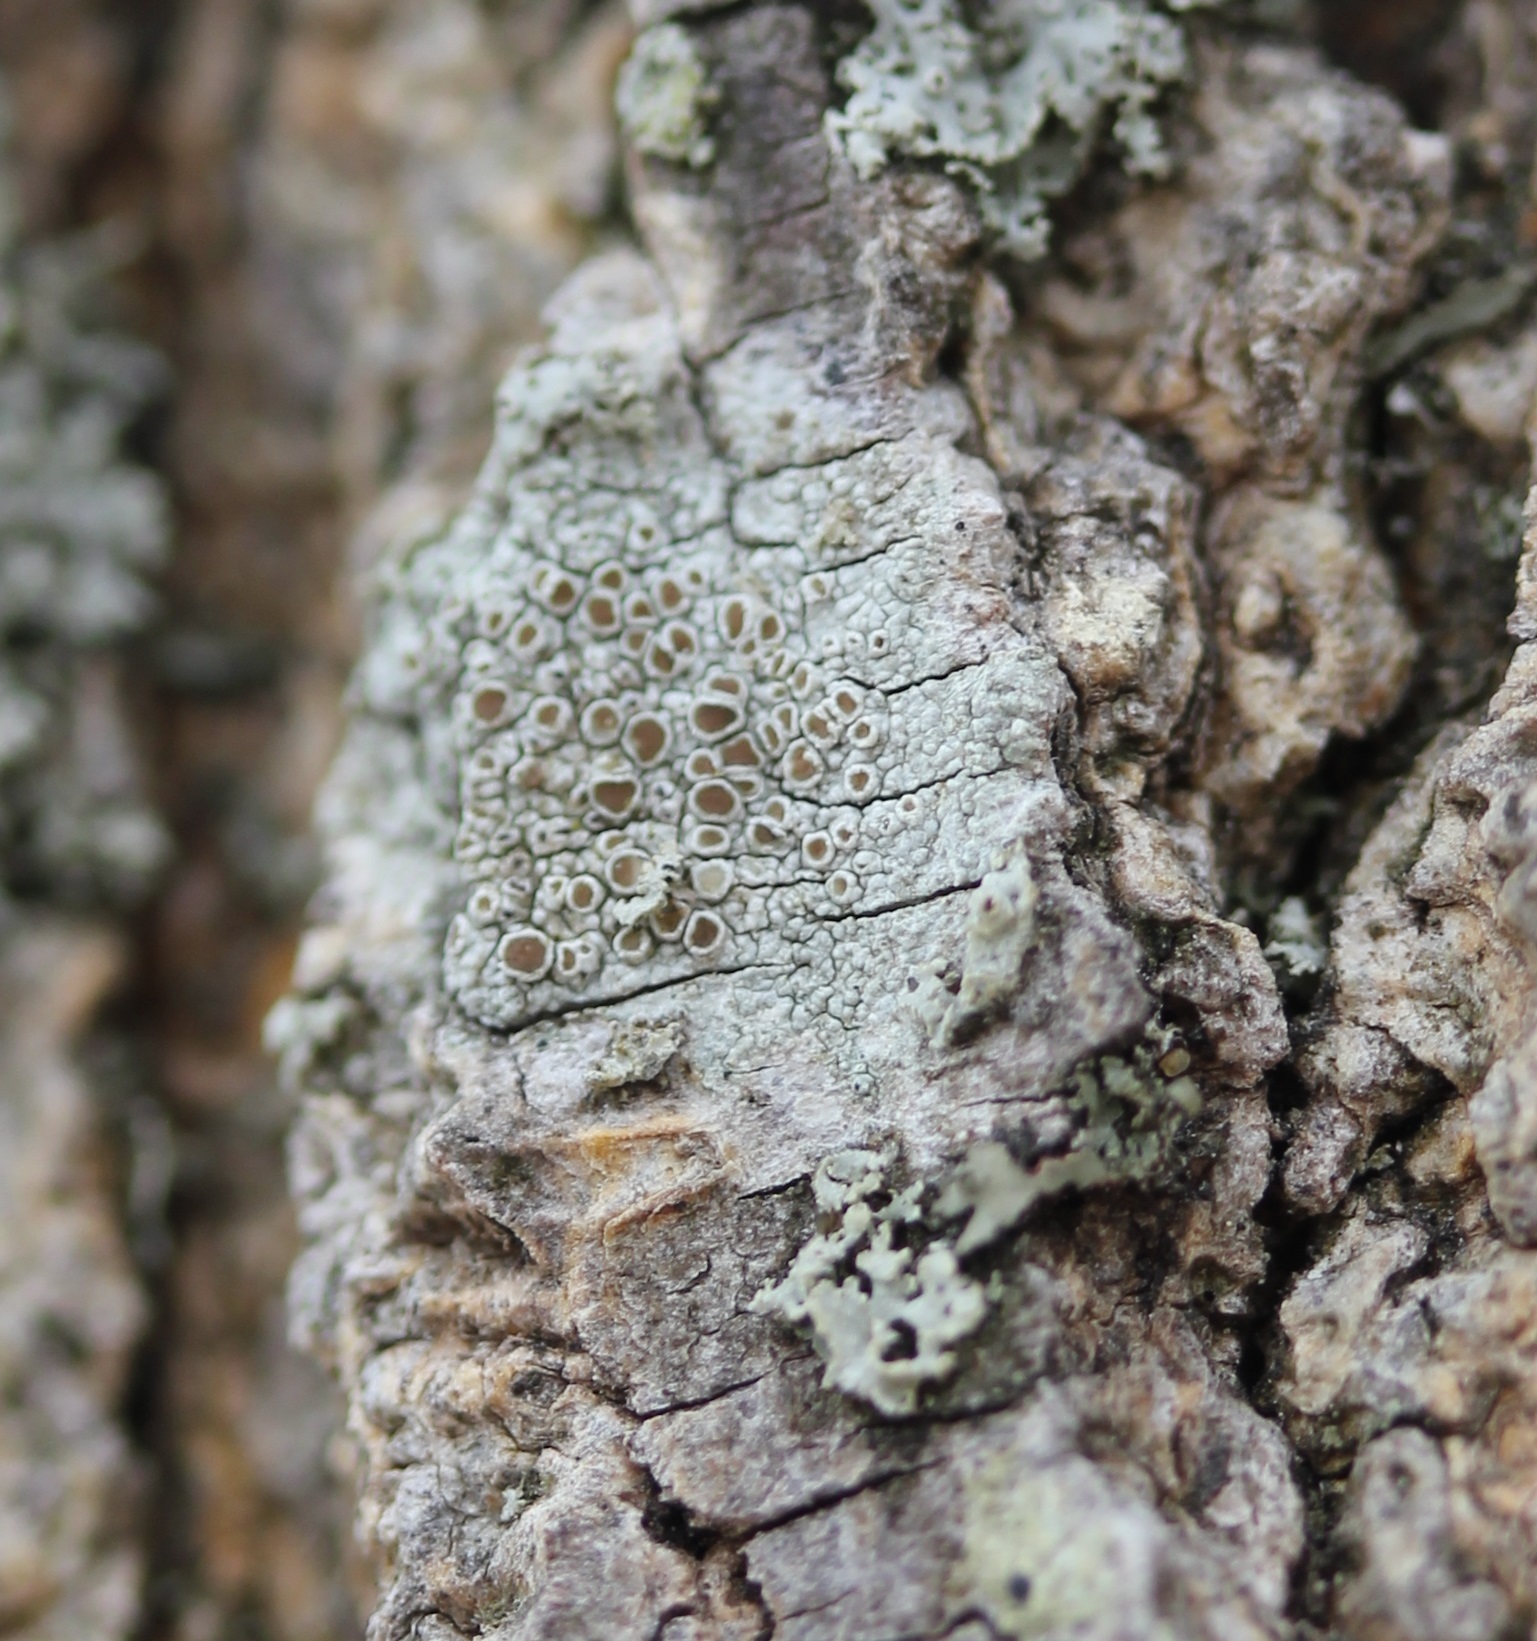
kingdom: Fungi
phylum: Ascomycota
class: Lecanoromycetes
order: Lecanorales
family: Lecanoraceae
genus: Lecanora
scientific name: Lecanora hybocarpa
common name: Bumpy rim-lichen
